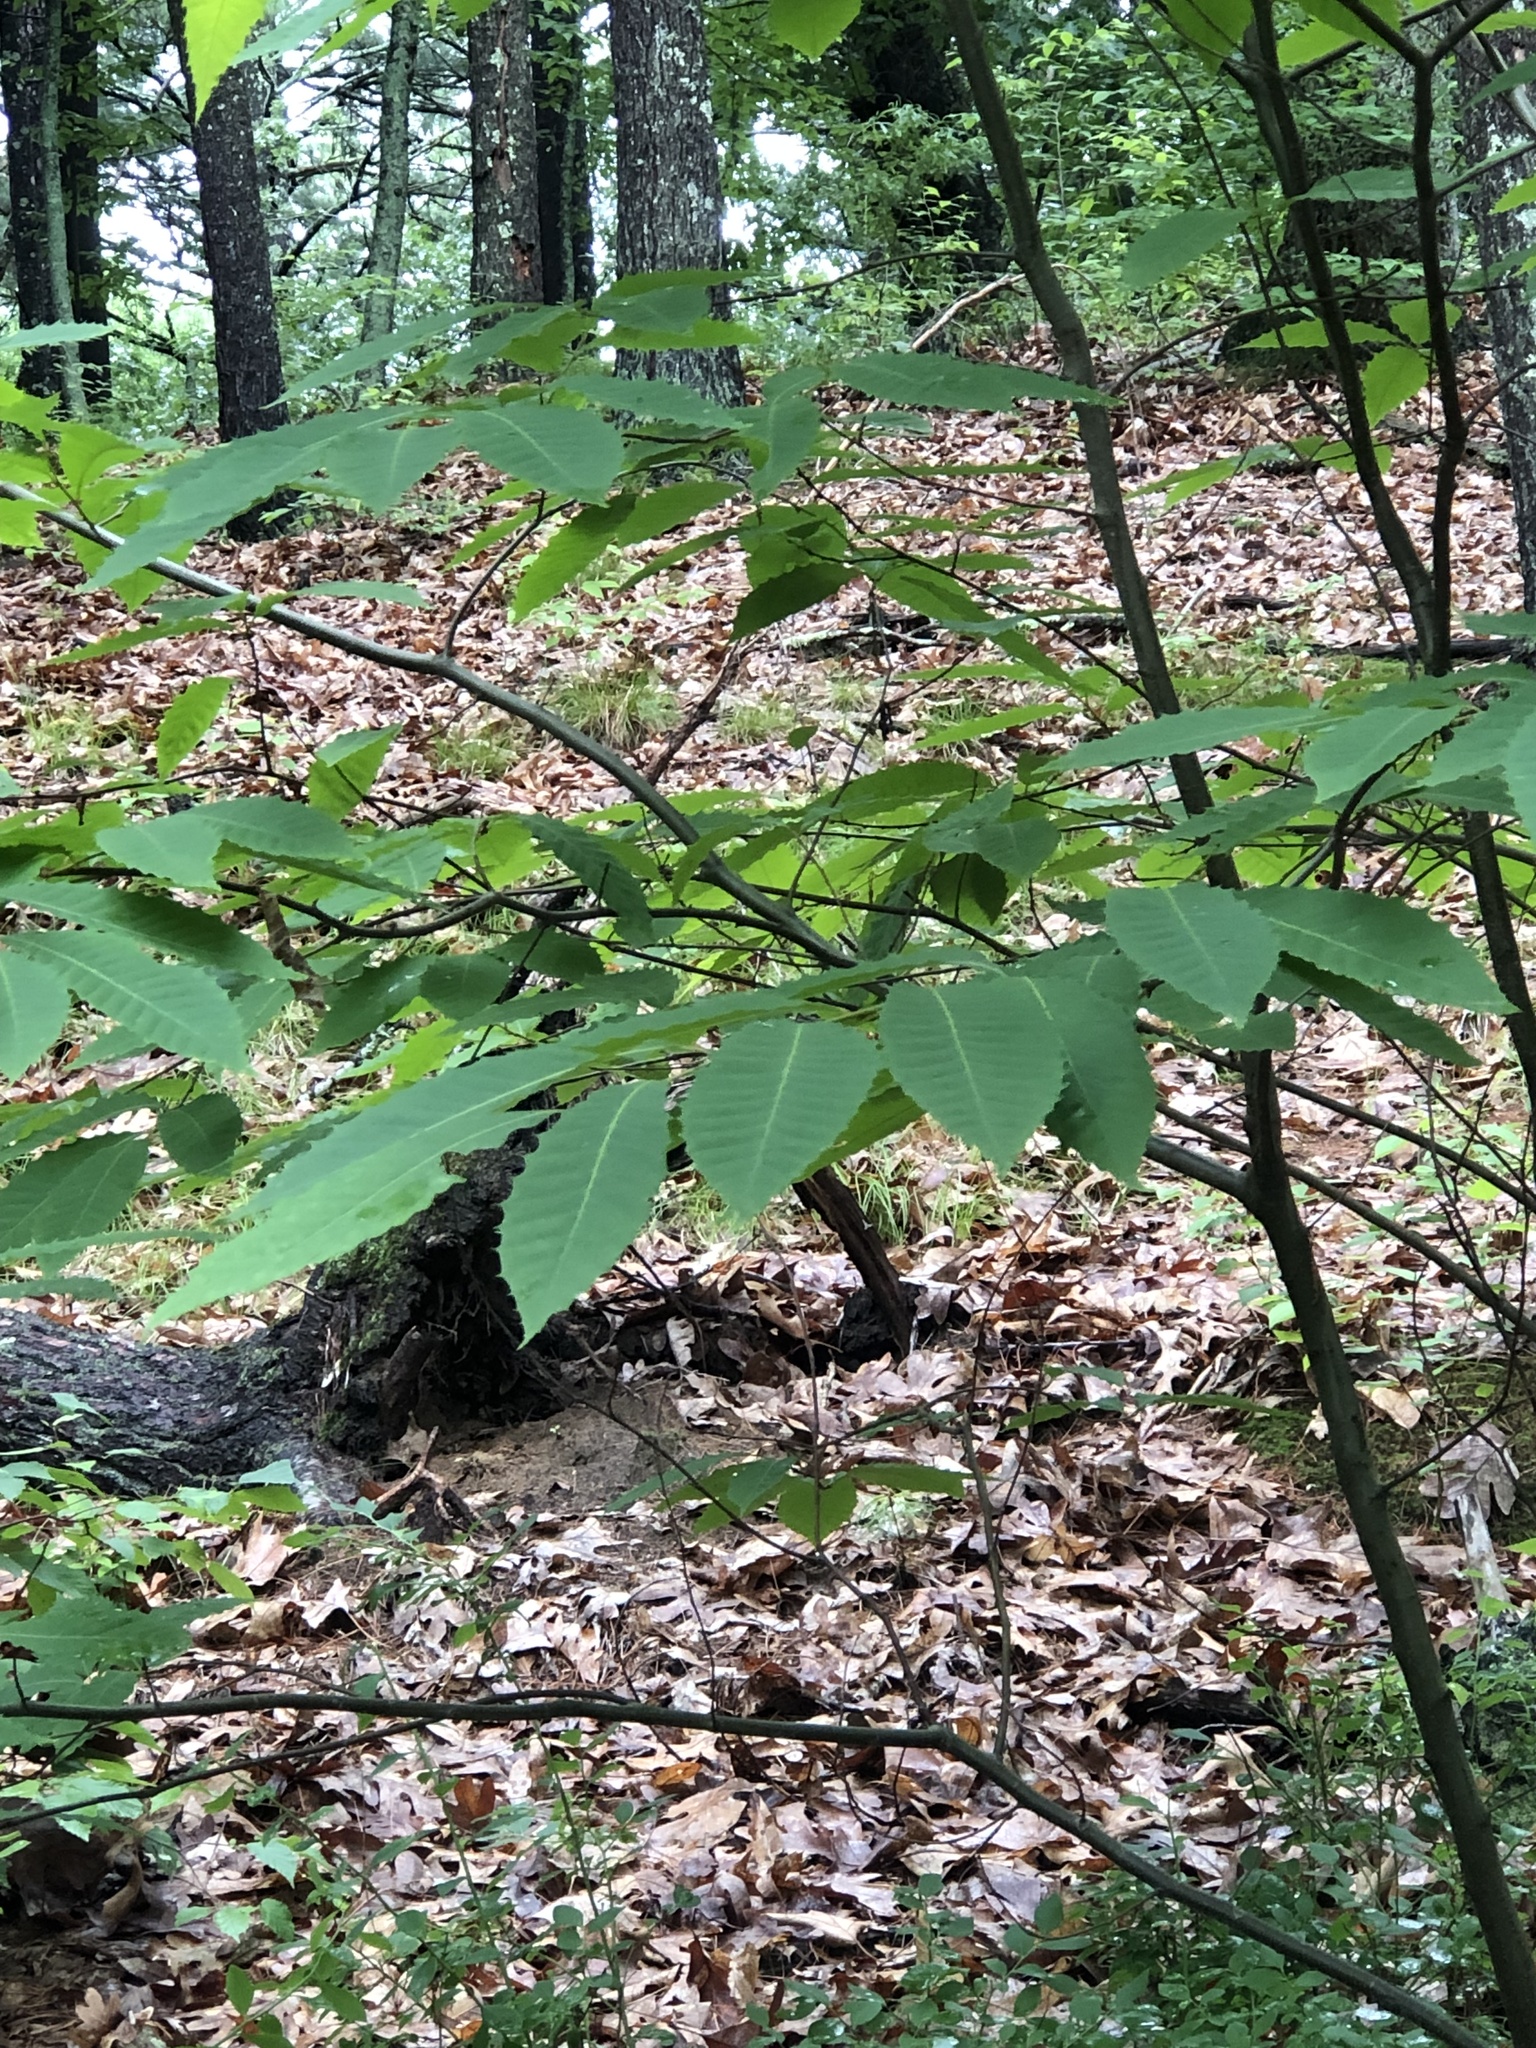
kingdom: Plantae
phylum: Tracheophyta
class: Magnoliopsida
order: Fagales
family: Fagaceae
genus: Castanea
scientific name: Castanea dentata
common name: American chestnut
